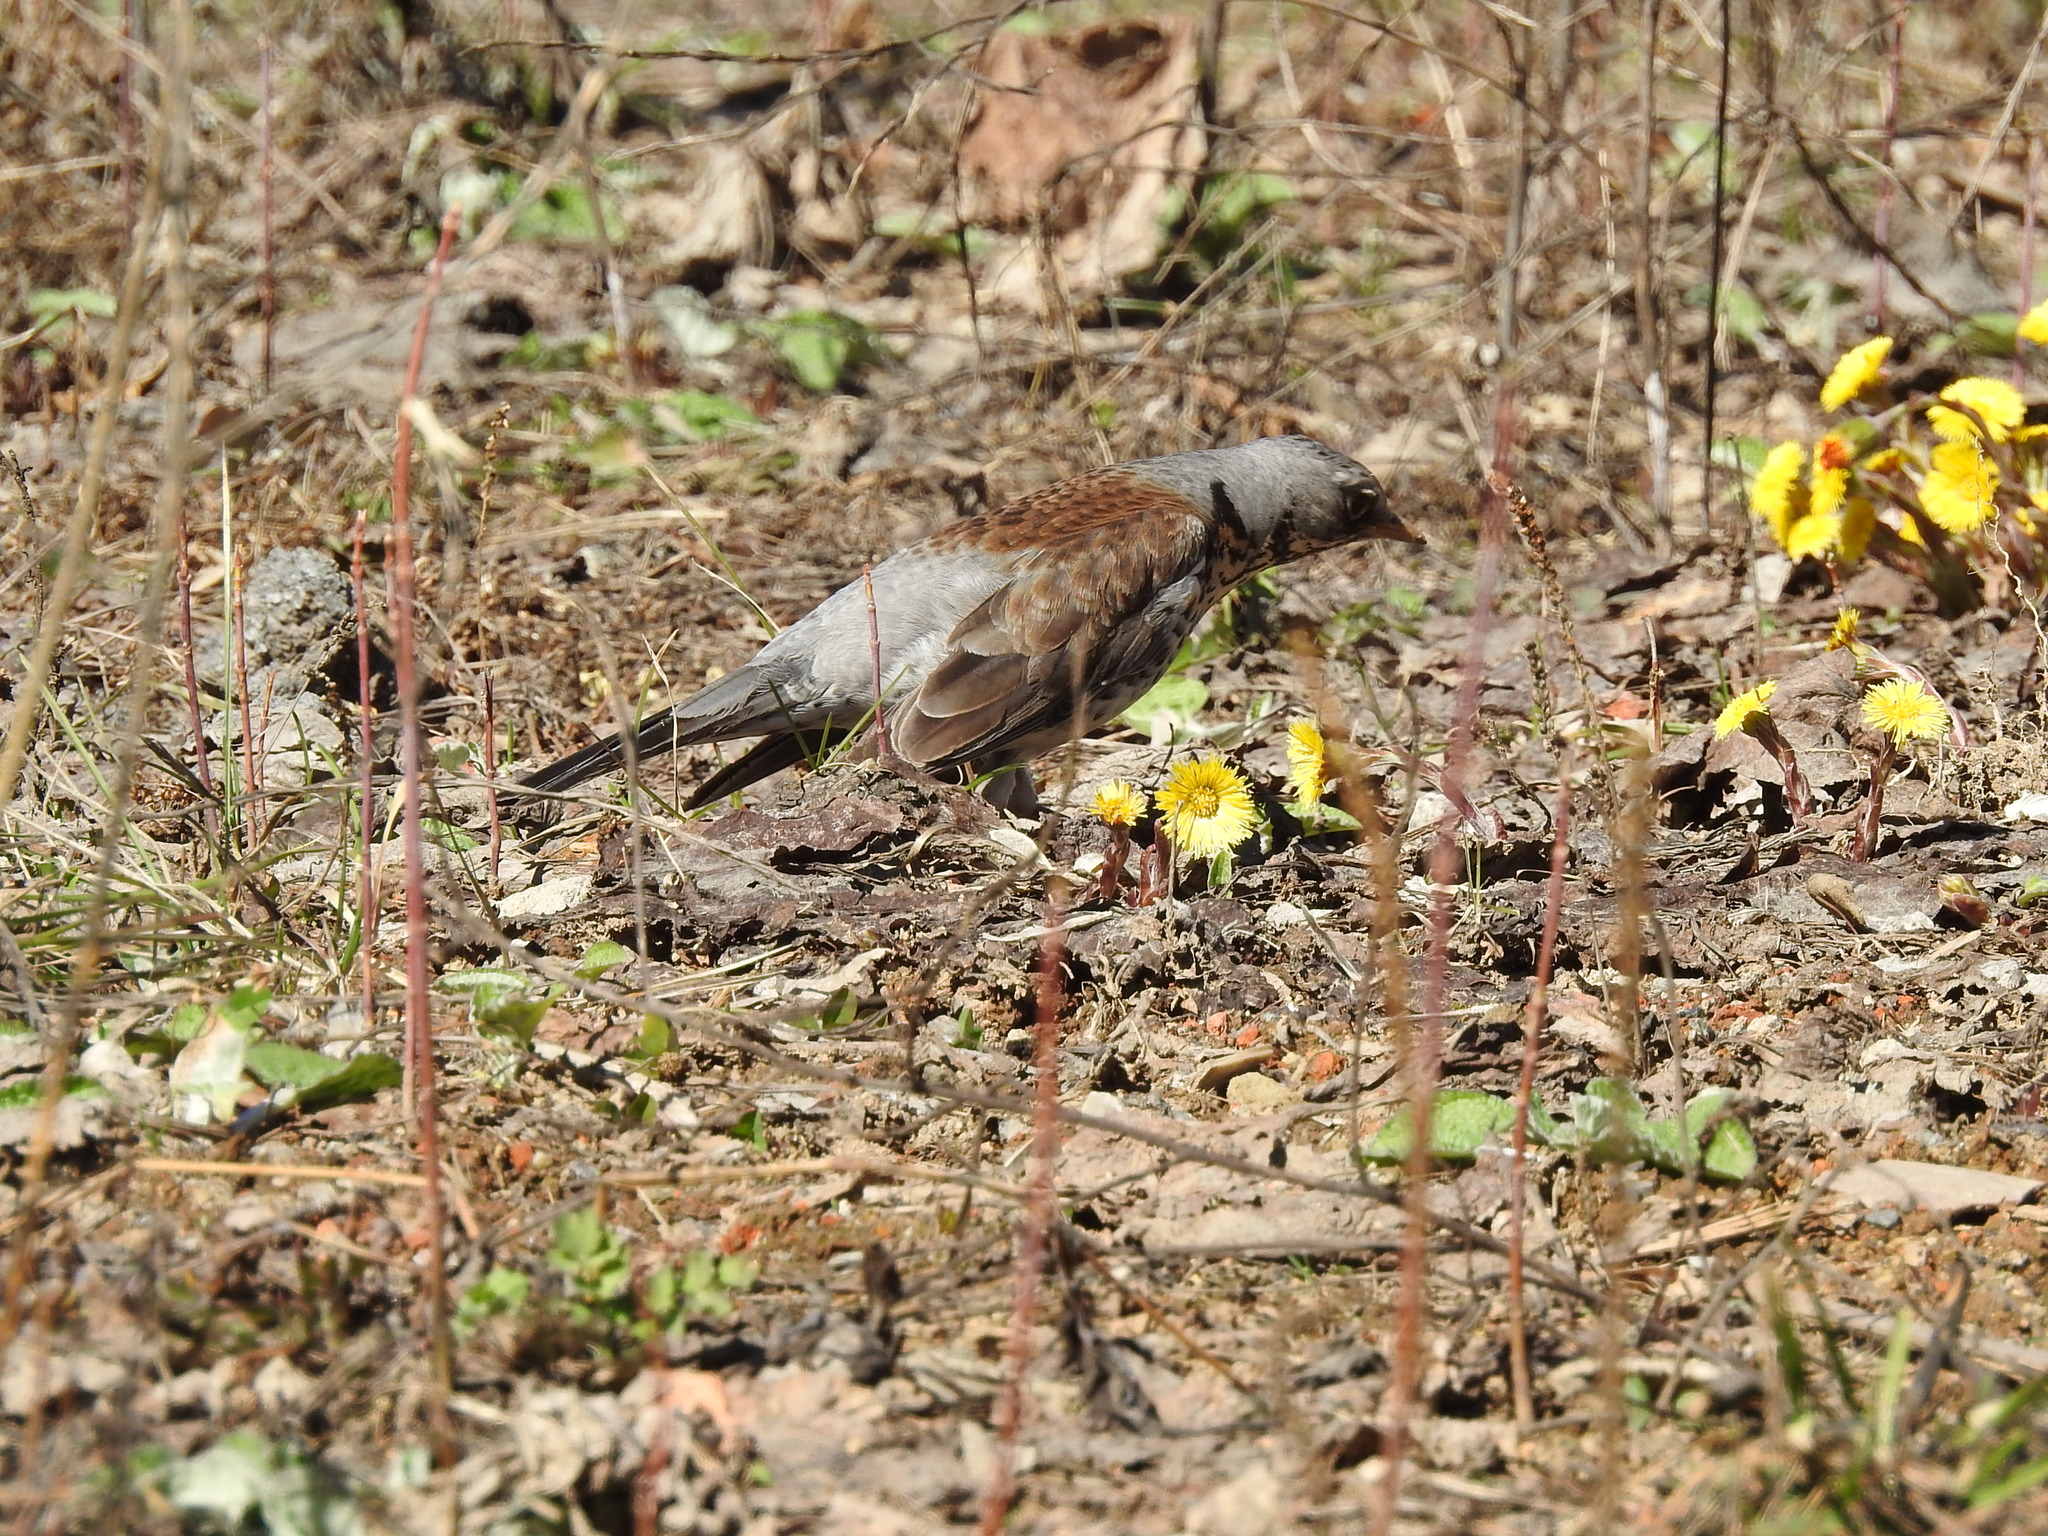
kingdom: Animalia
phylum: Chordata
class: Aves
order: Passeriformes
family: Turdidae
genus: Turdus
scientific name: Turdus pilaris
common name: Fieldfare
